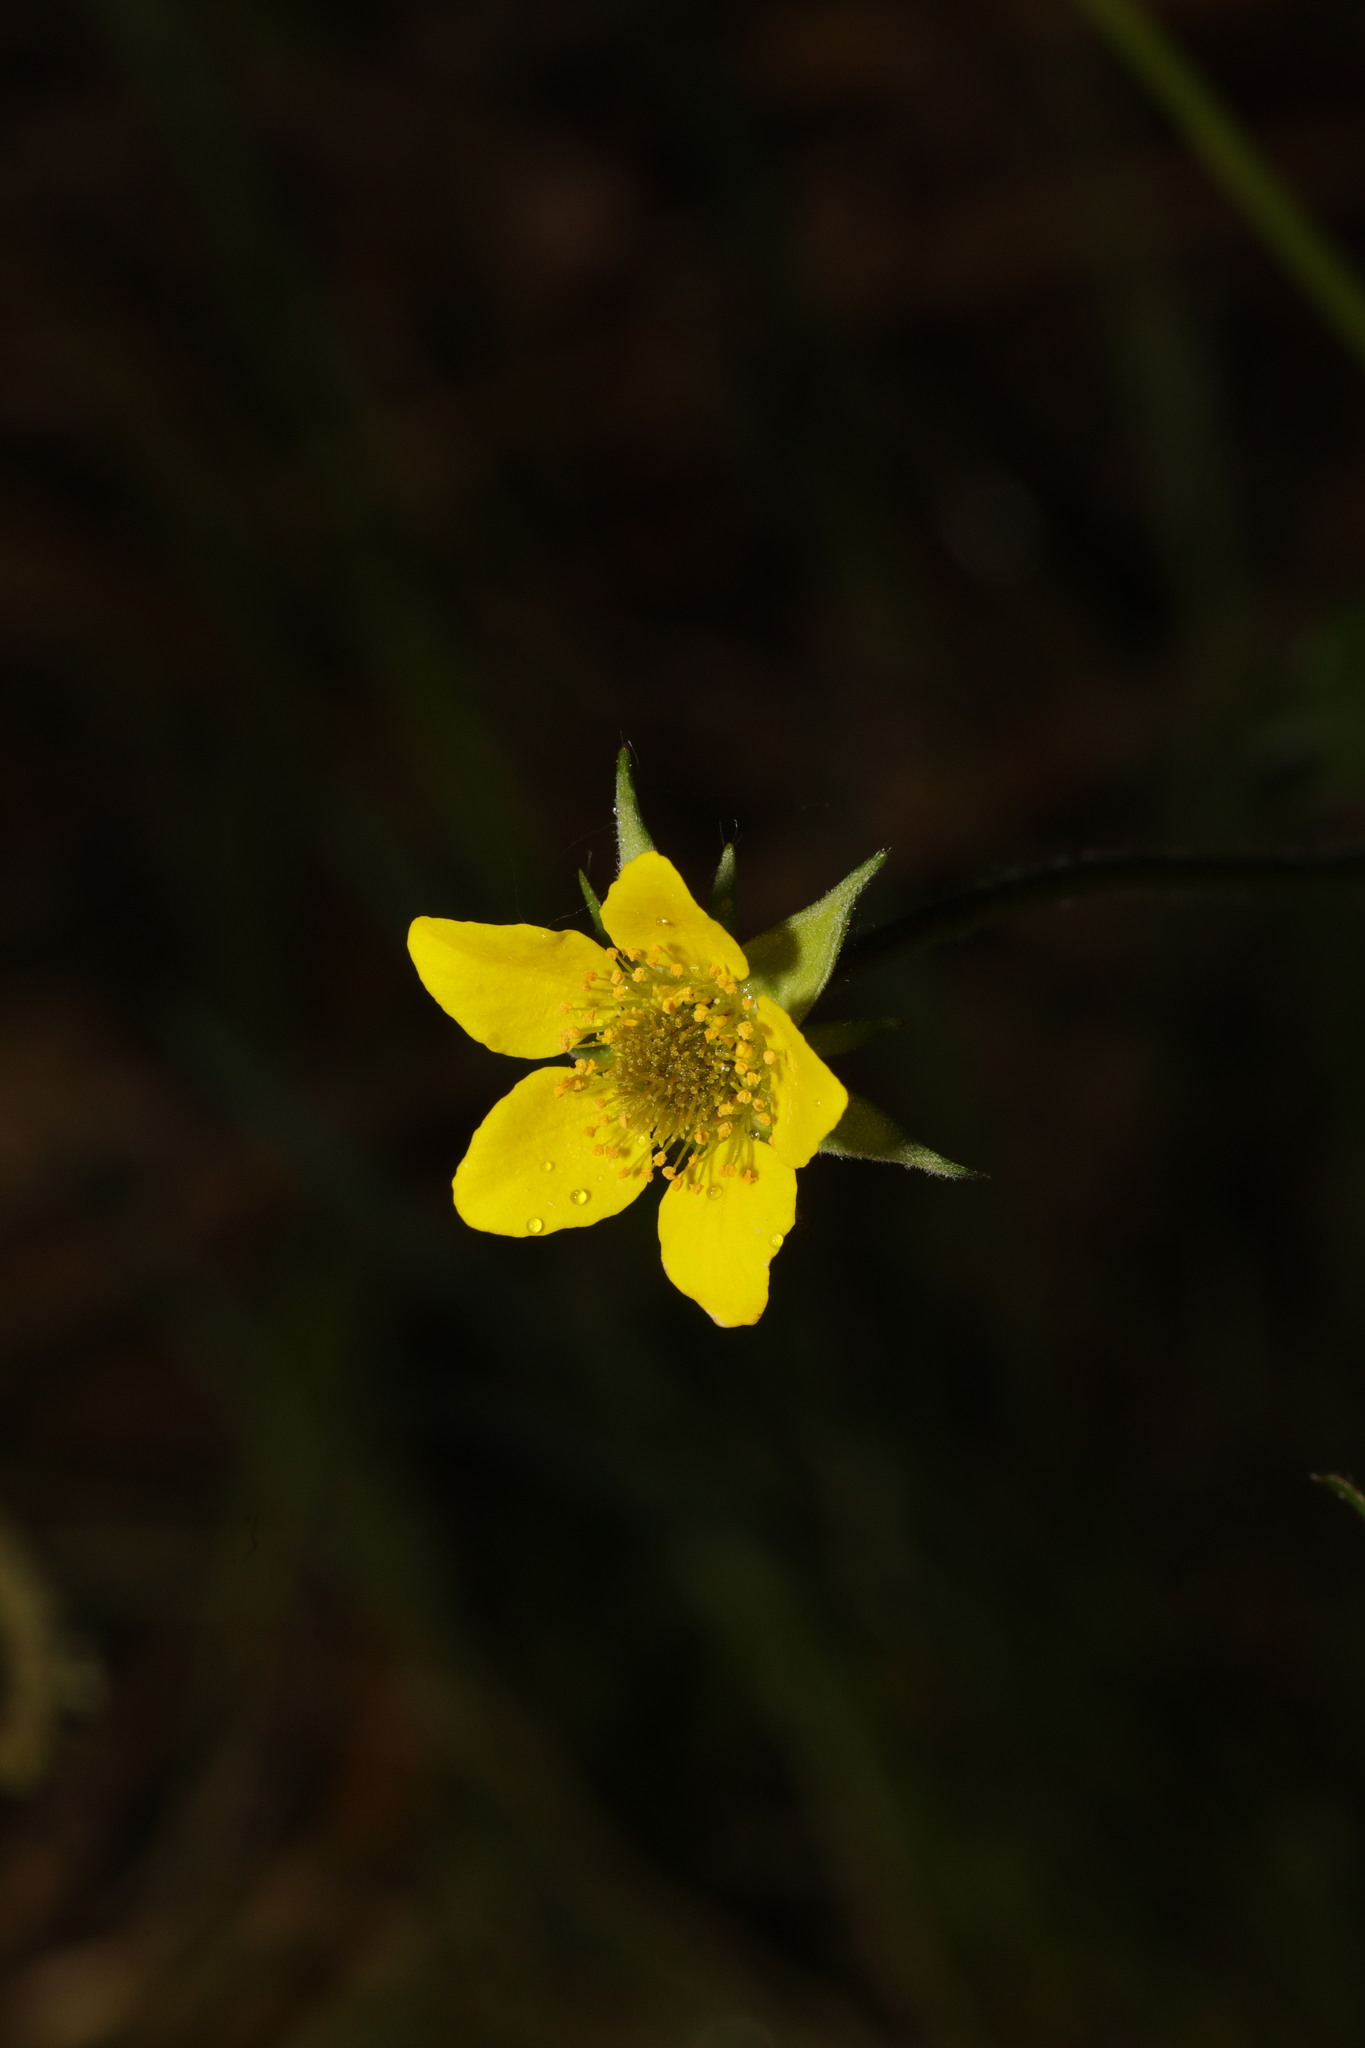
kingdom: Plantae
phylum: Tracheophyta
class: Magnoliopsida
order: Rosales
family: Rosaceae
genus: Geum
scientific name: Geum urbanum
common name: Wood avens
